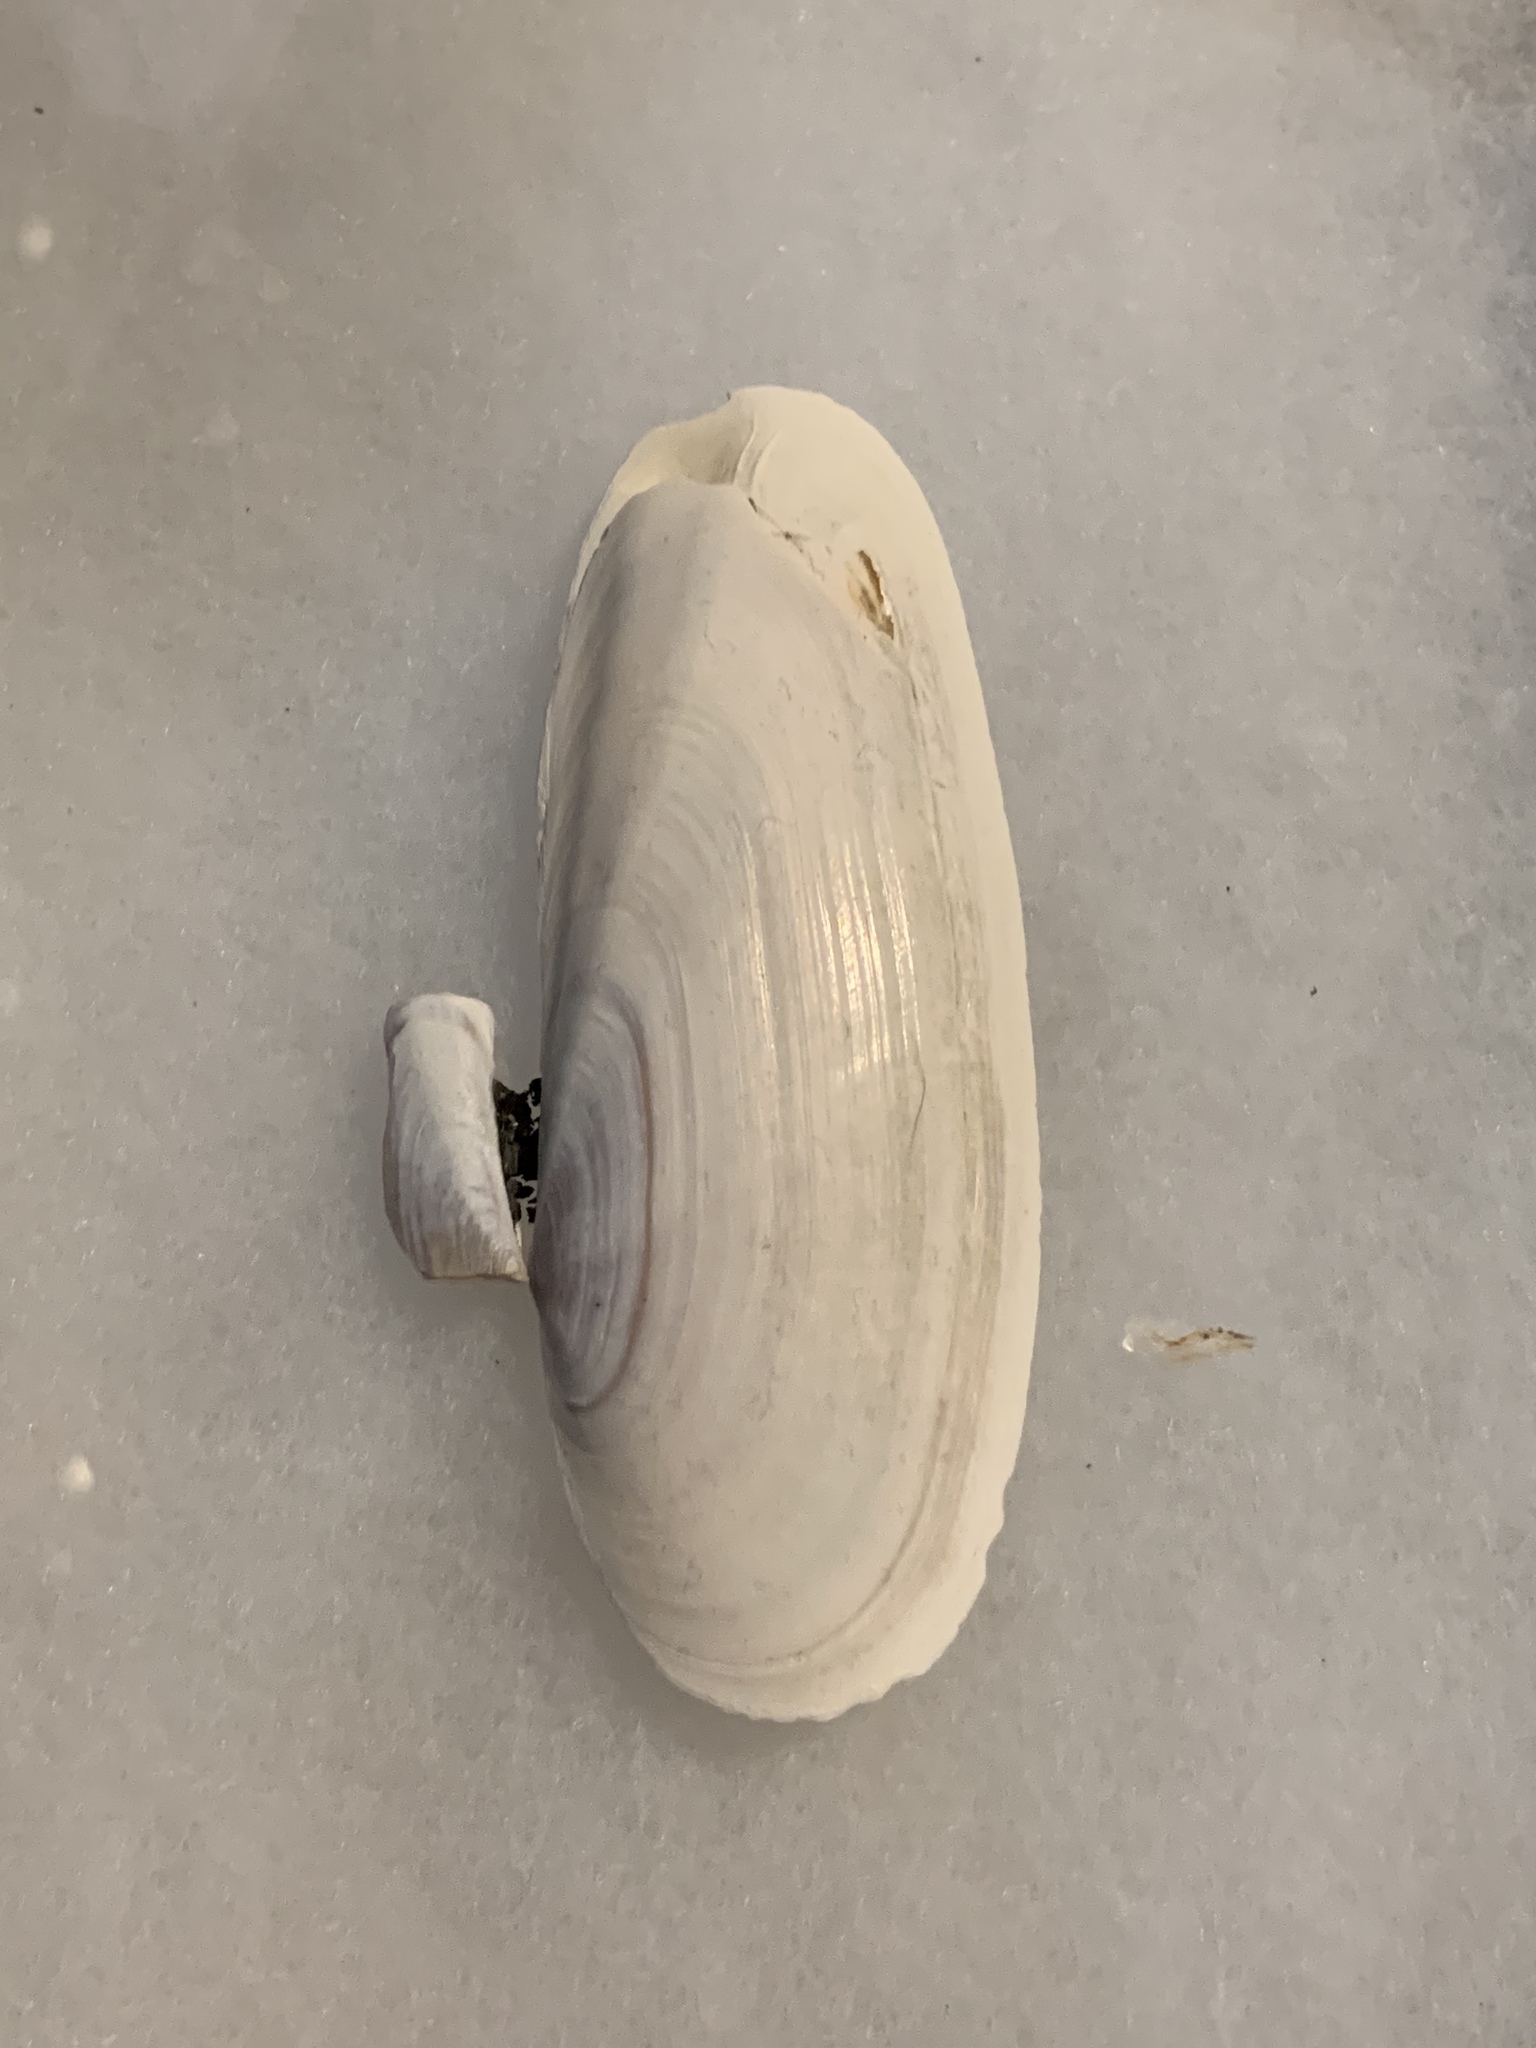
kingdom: Animalia
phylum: Mollusca
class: Bivalvia
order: Adapedonta
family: Pharidae
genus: Siliqua
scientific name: Siliqua patula
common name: Pacific razor clam
